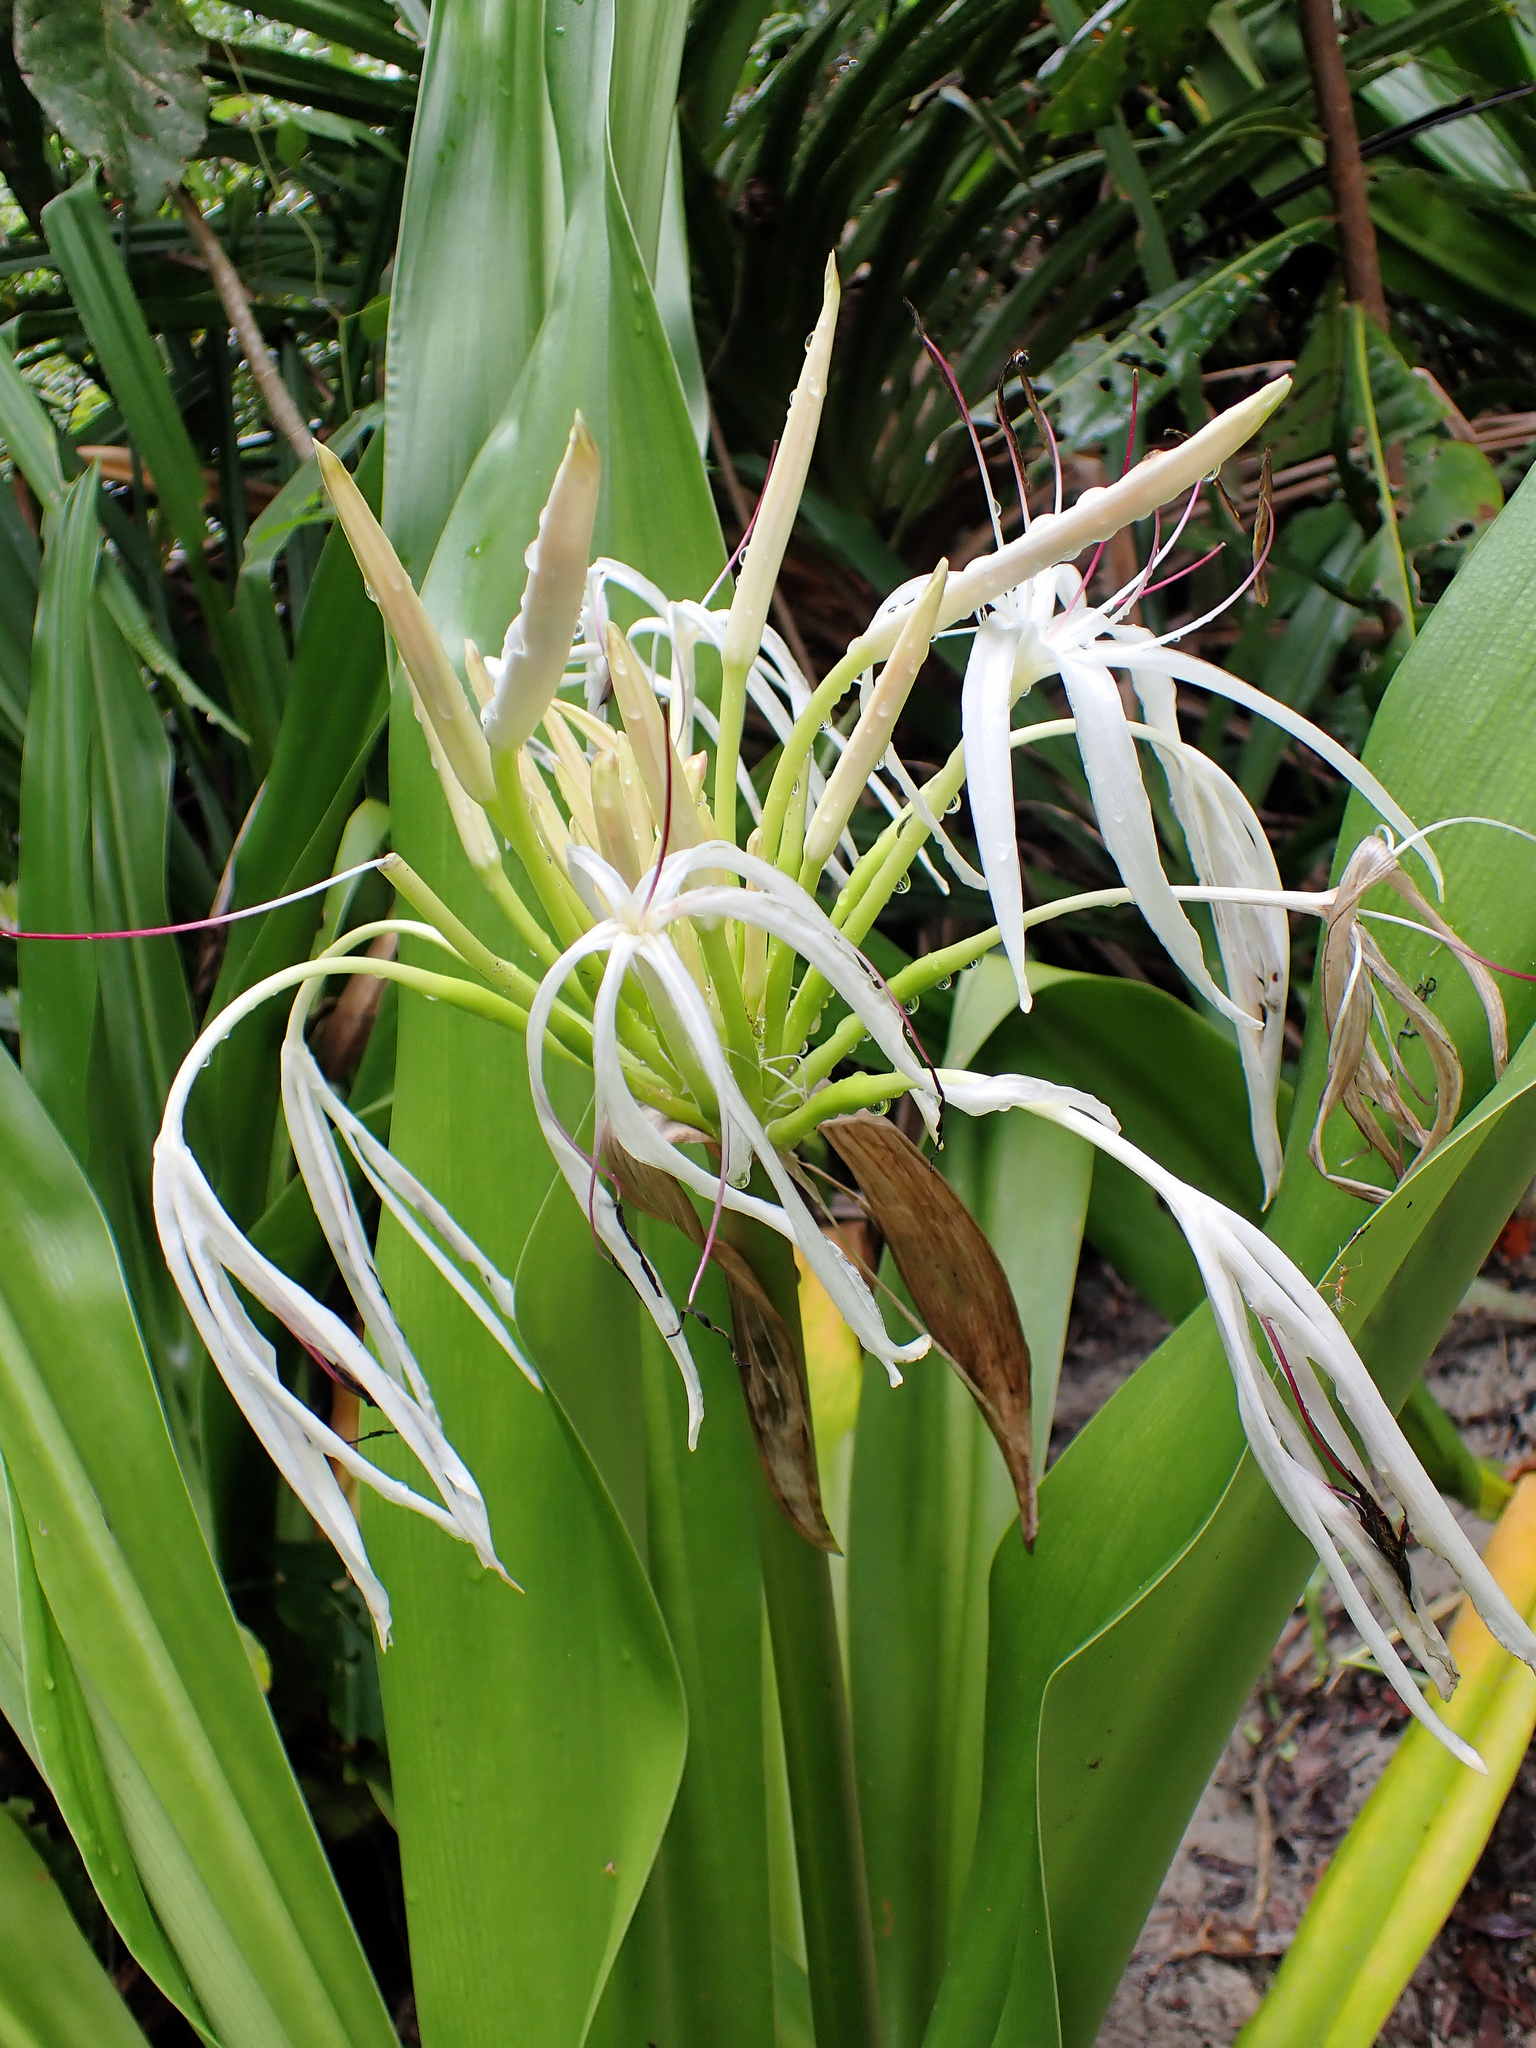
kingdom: Plantae
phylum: Tracheophyta
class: Liliopsida
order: Asparagales
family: Amaryllidaceae
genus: Crinum
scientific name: Crinum pedunculatum
